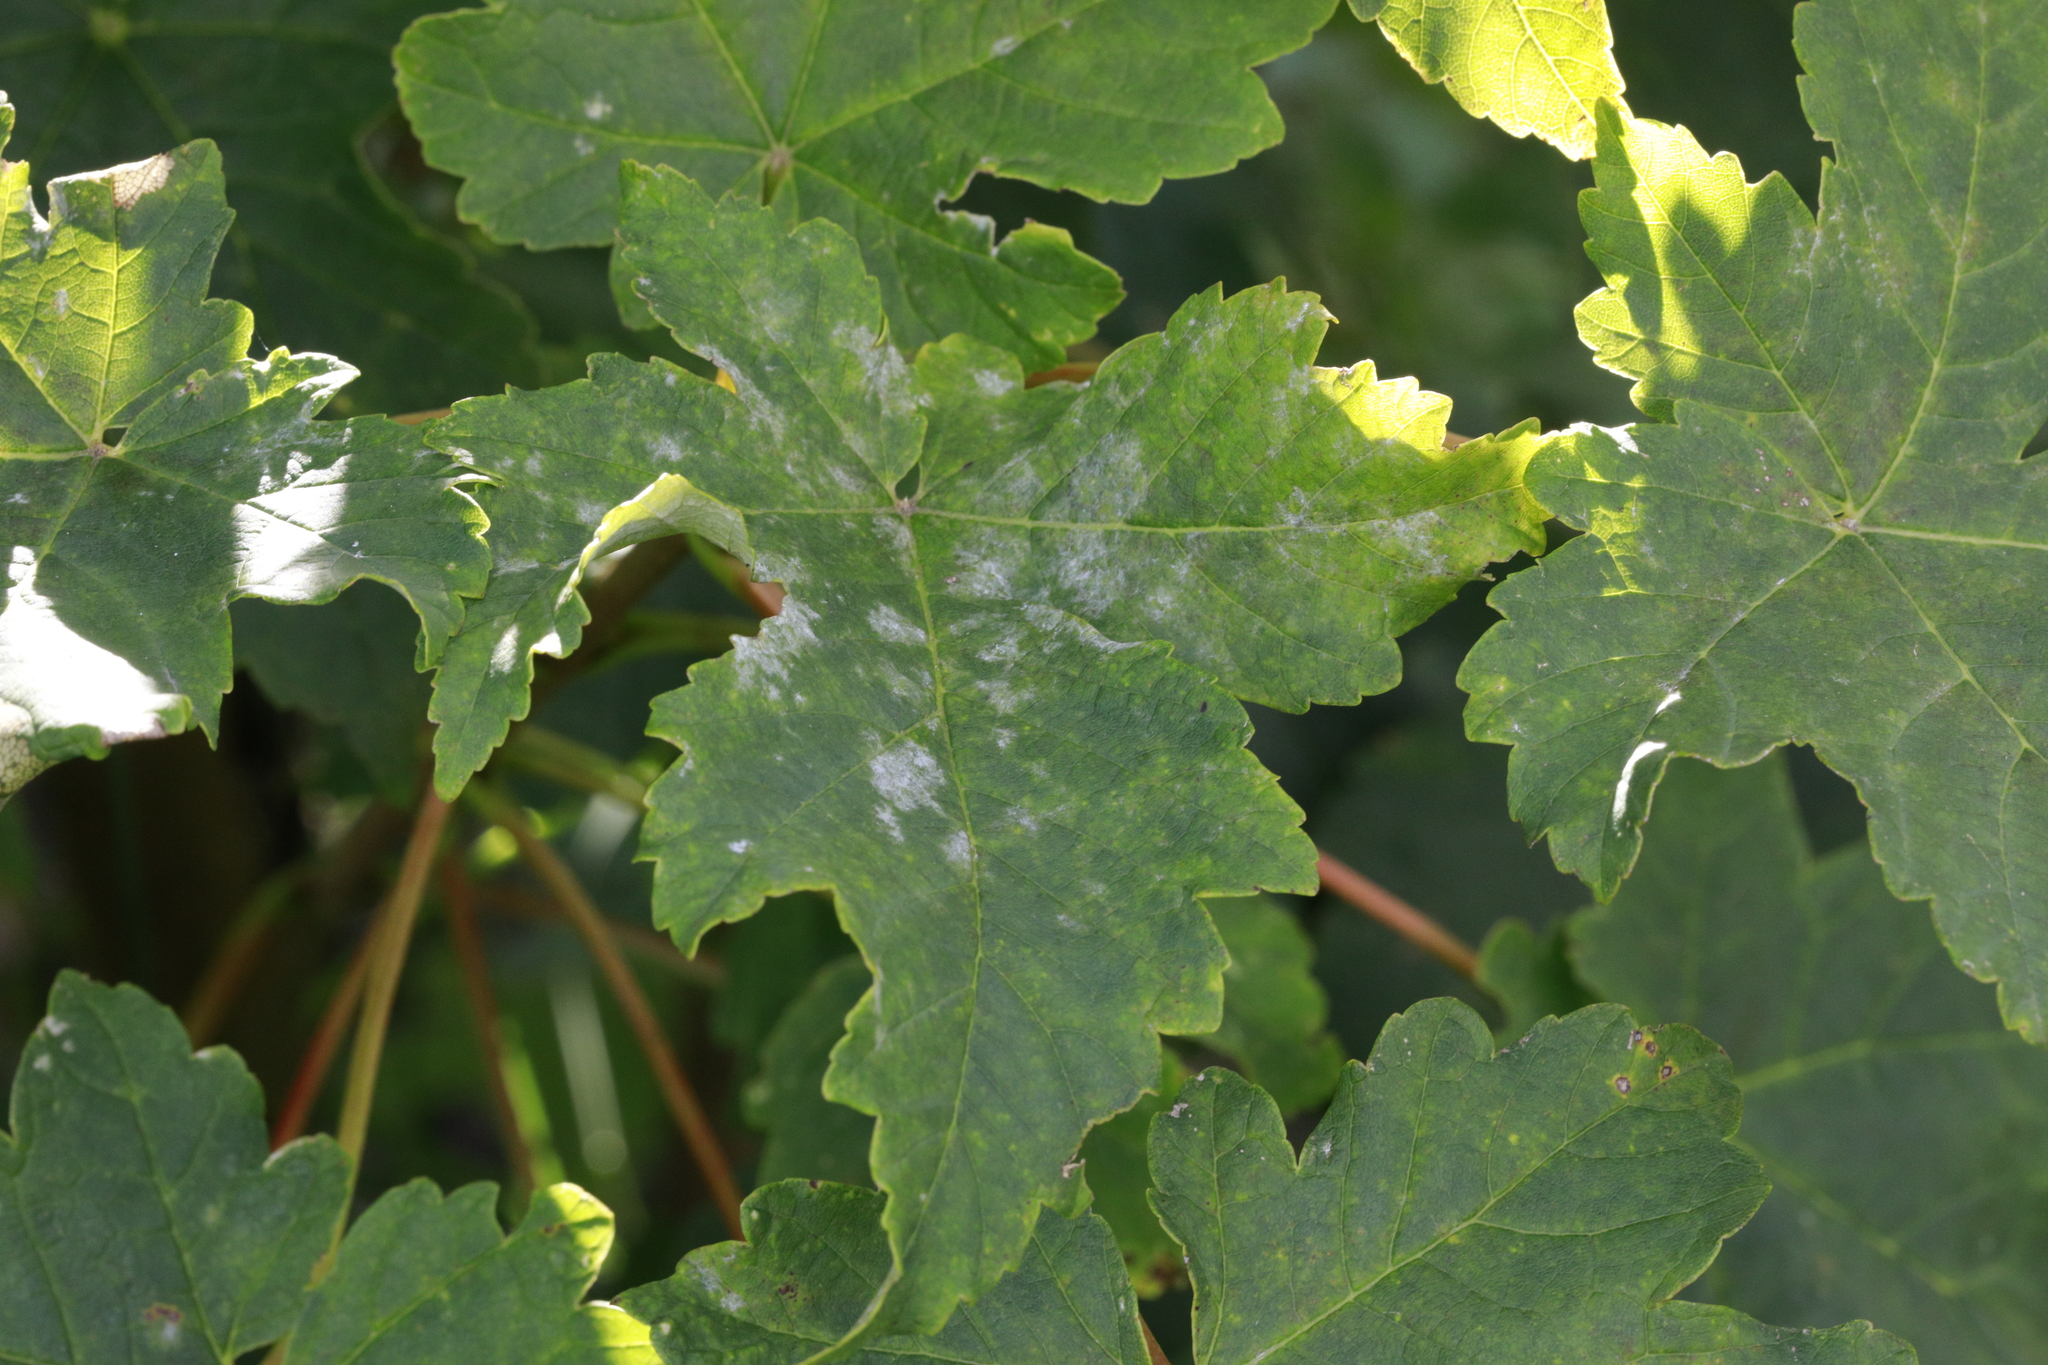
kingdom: Plantae
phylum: Tracheophyta
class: Magnoliopsida
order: Sapindales
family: Sapindaceae
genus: Acer
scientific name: Acer pseudoplatanus
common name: Sycamore
